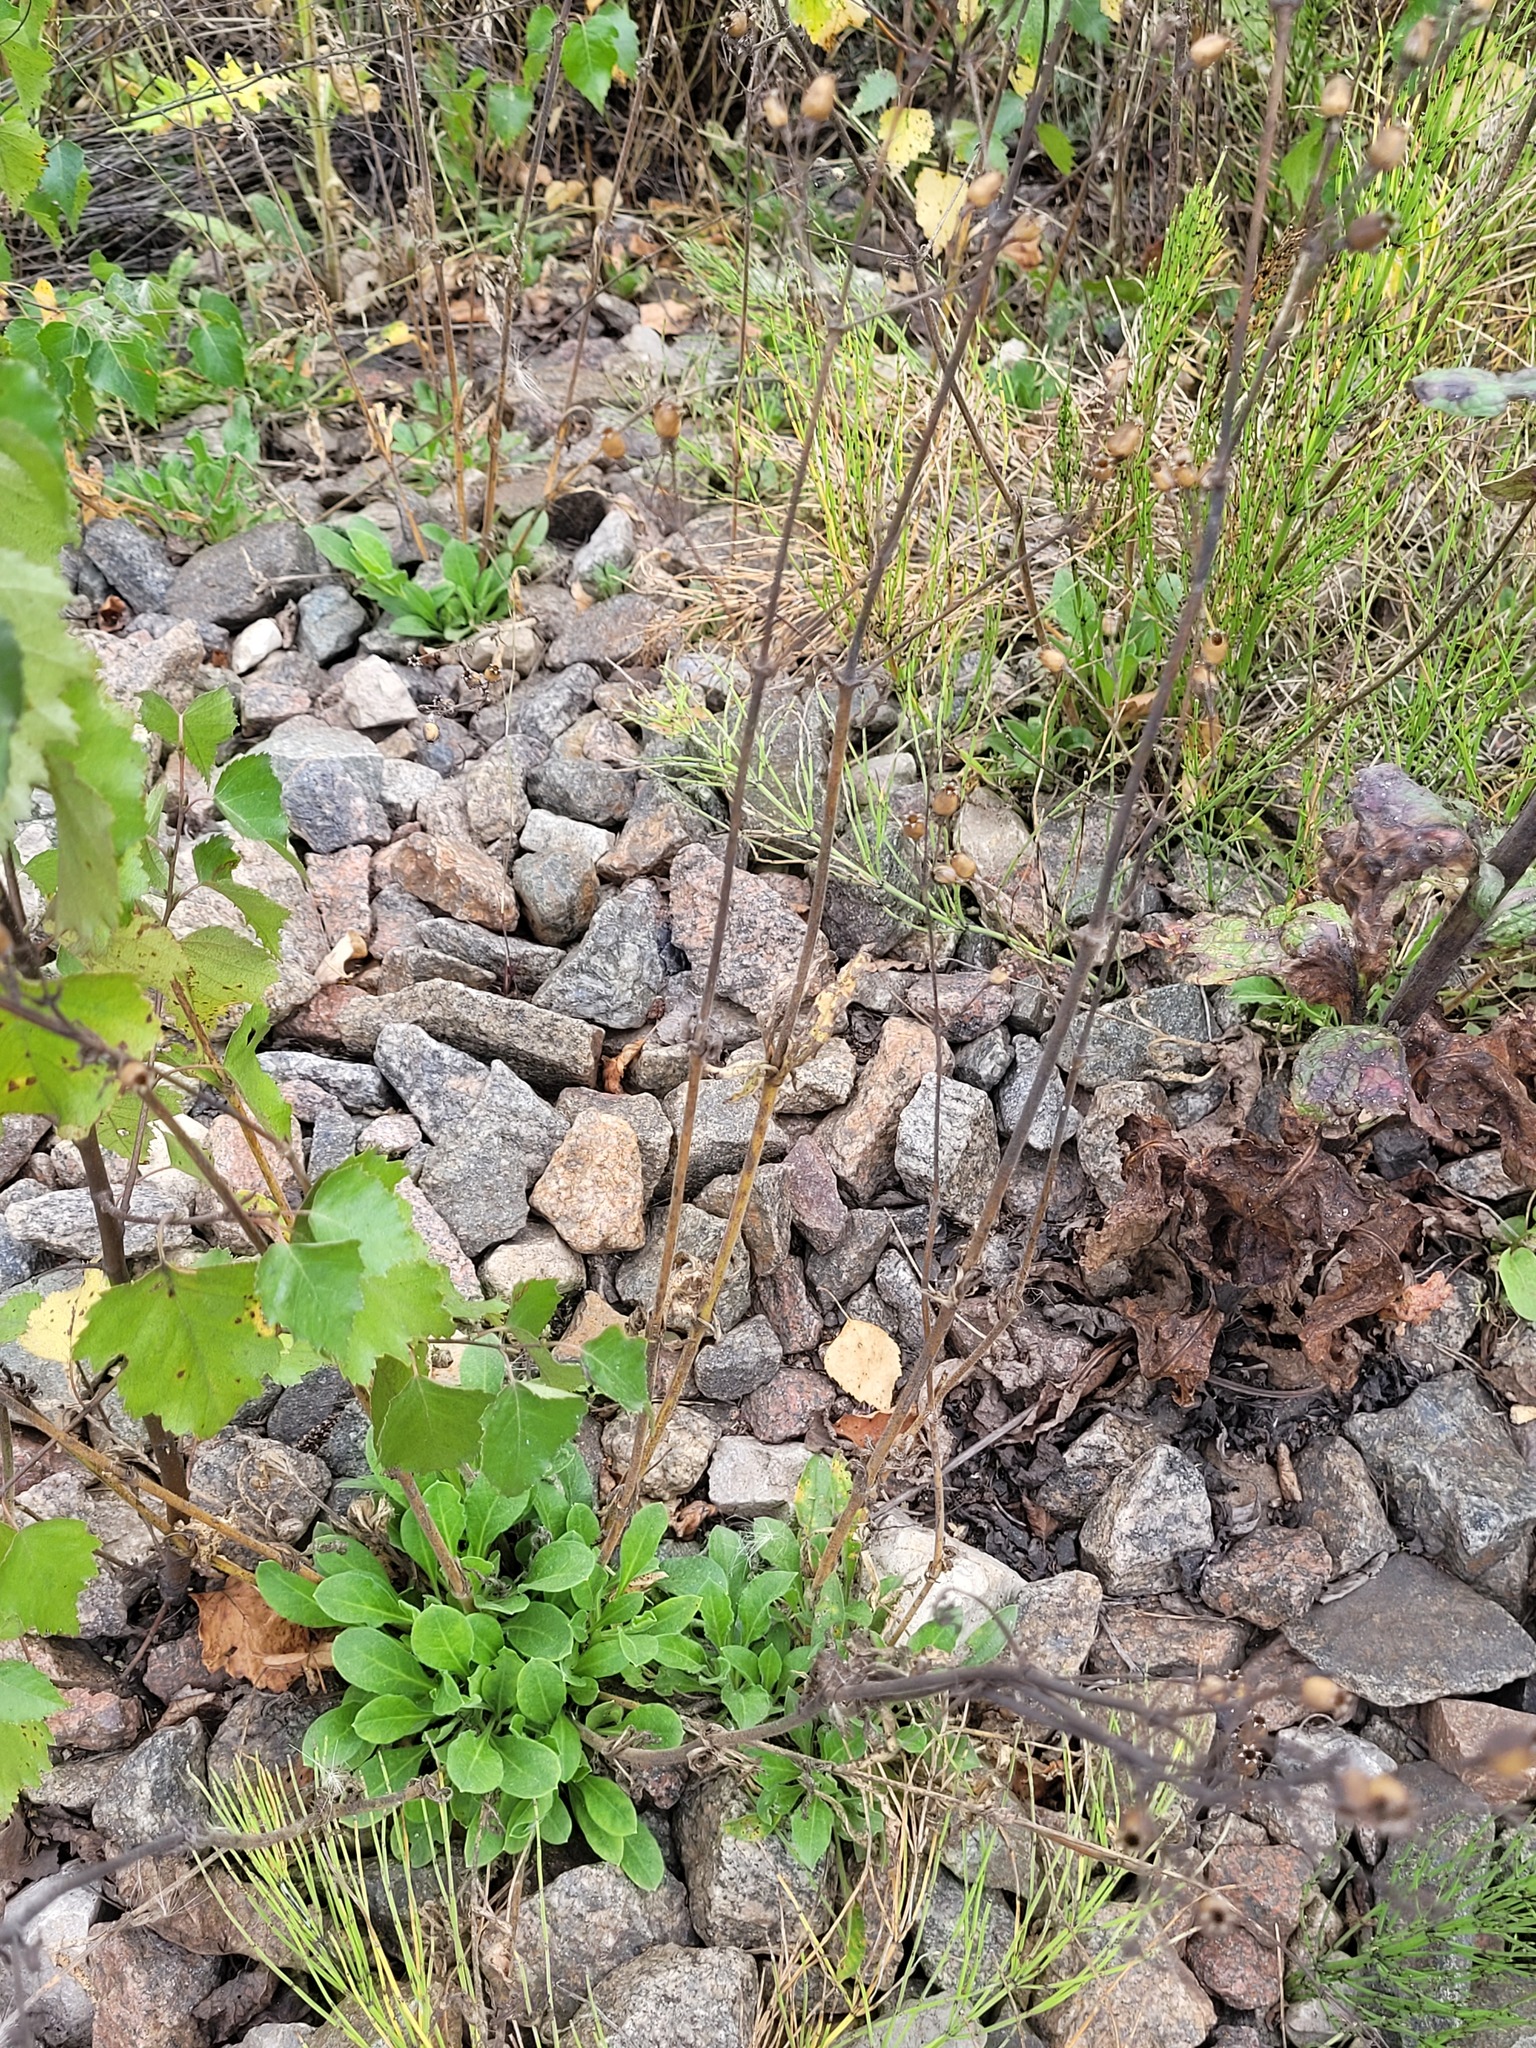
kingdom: Plantae
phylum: Tracheophyta
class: Magnoliopsida
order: Caryophyllales
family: Caryophyllaceae
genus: Silene
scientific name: Silene nutans
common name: Nottingham catchfly
